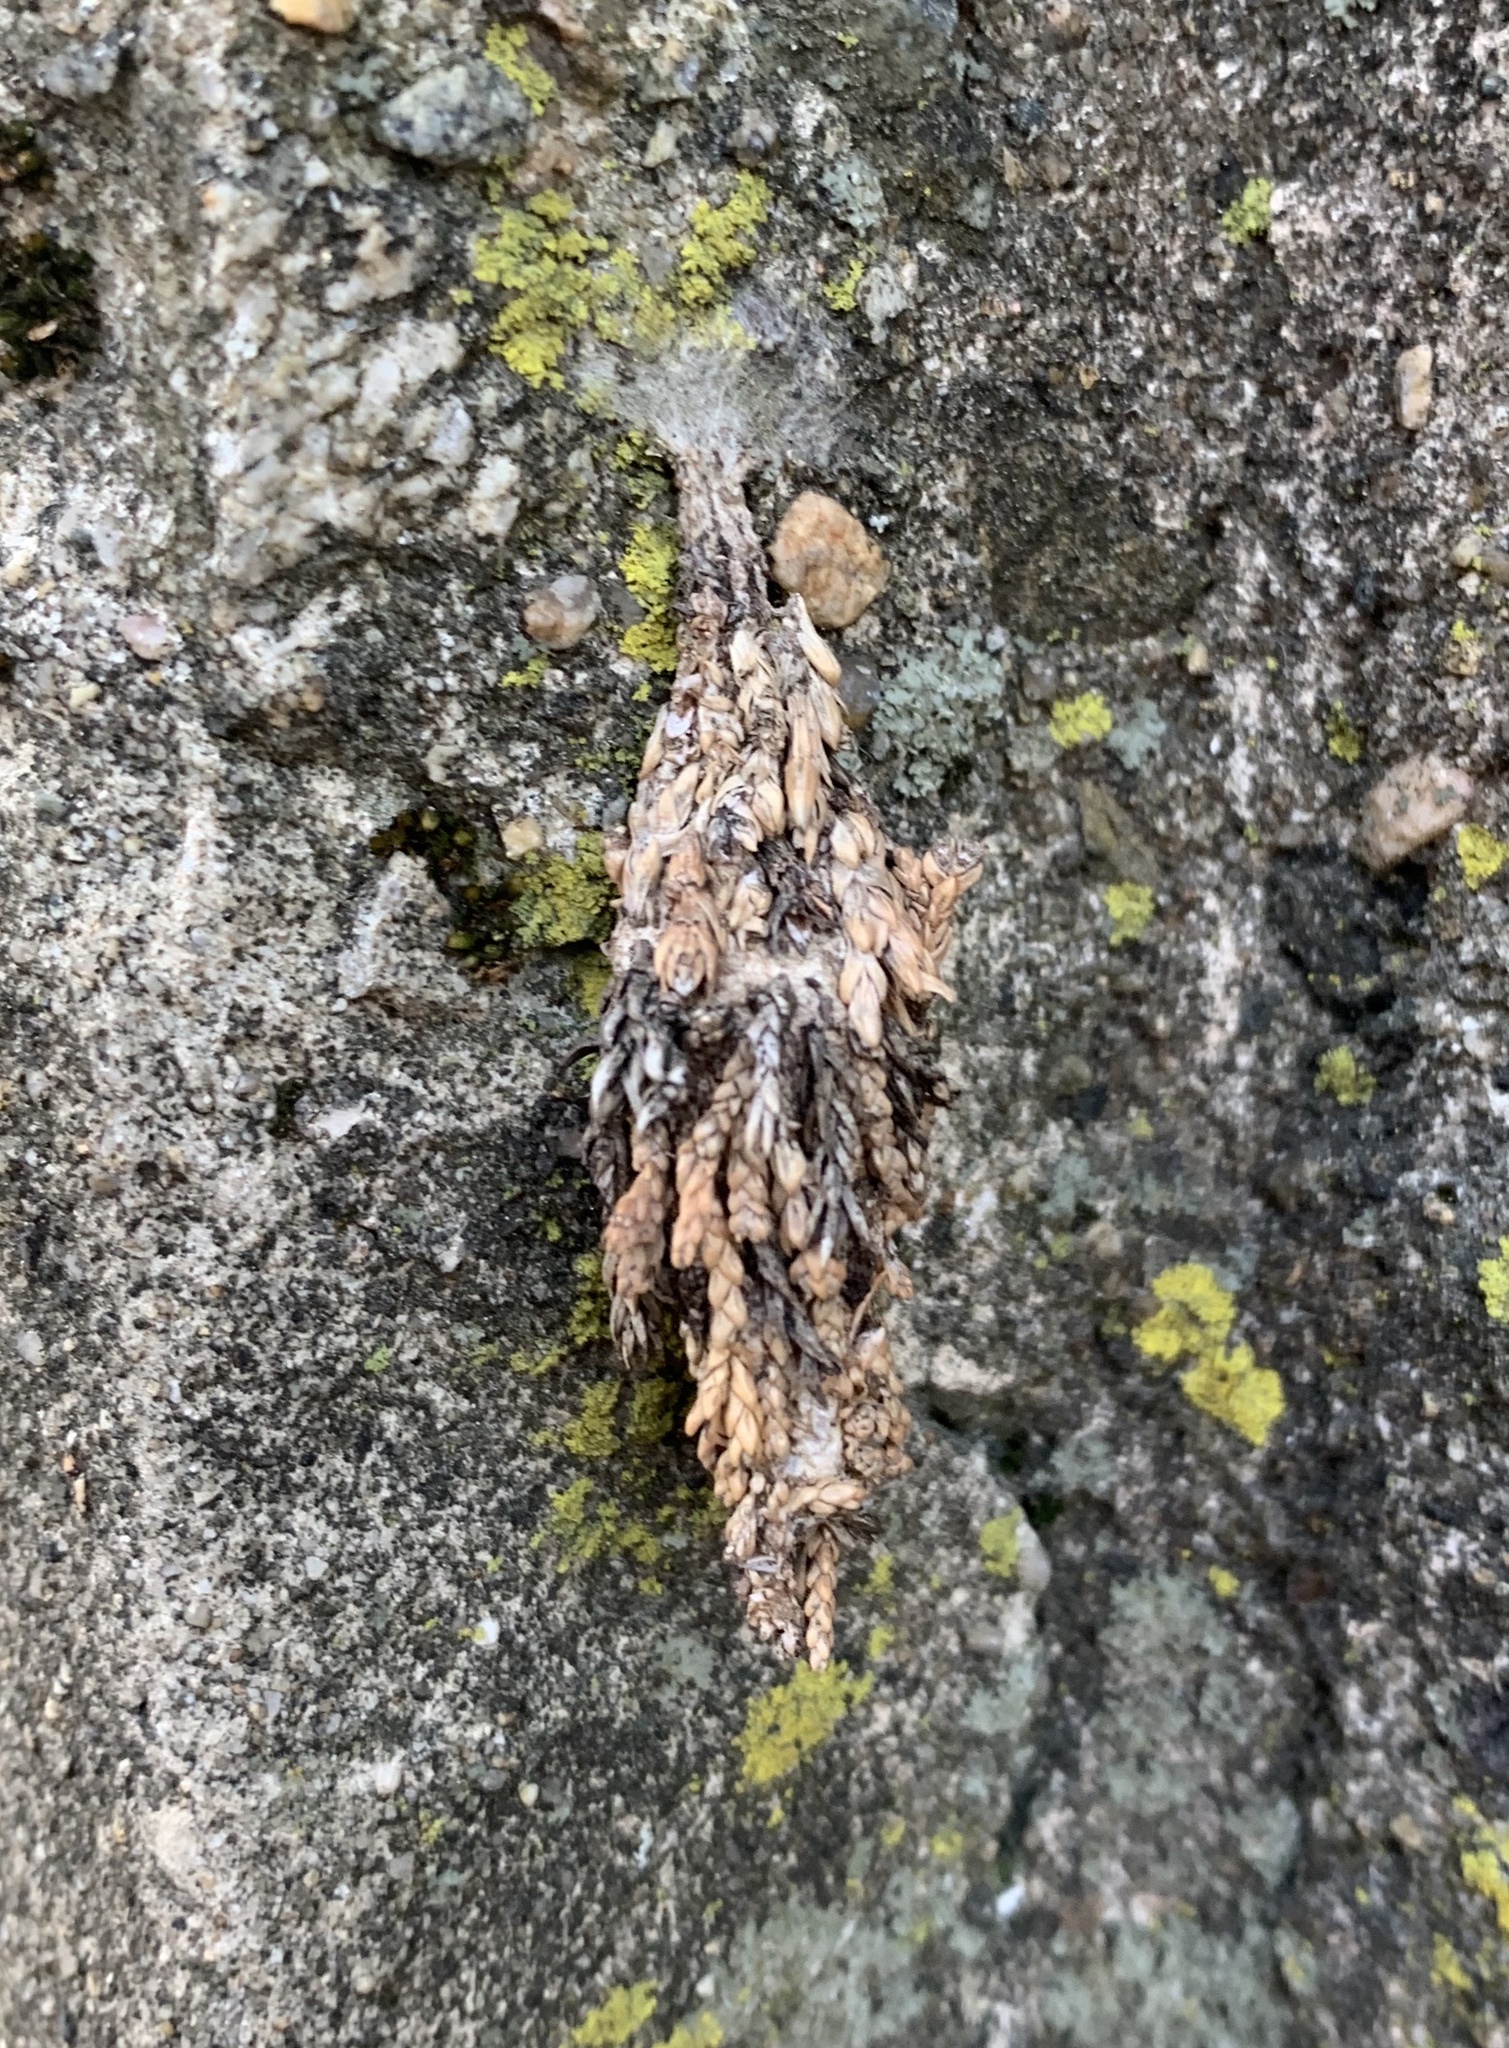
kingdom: Animalia
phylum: Arthropoda
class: Insecta
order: Lepidoptera
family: Psychidae
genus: Thyridopteryx
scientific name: Thyridopteryx ephemeraeformis
